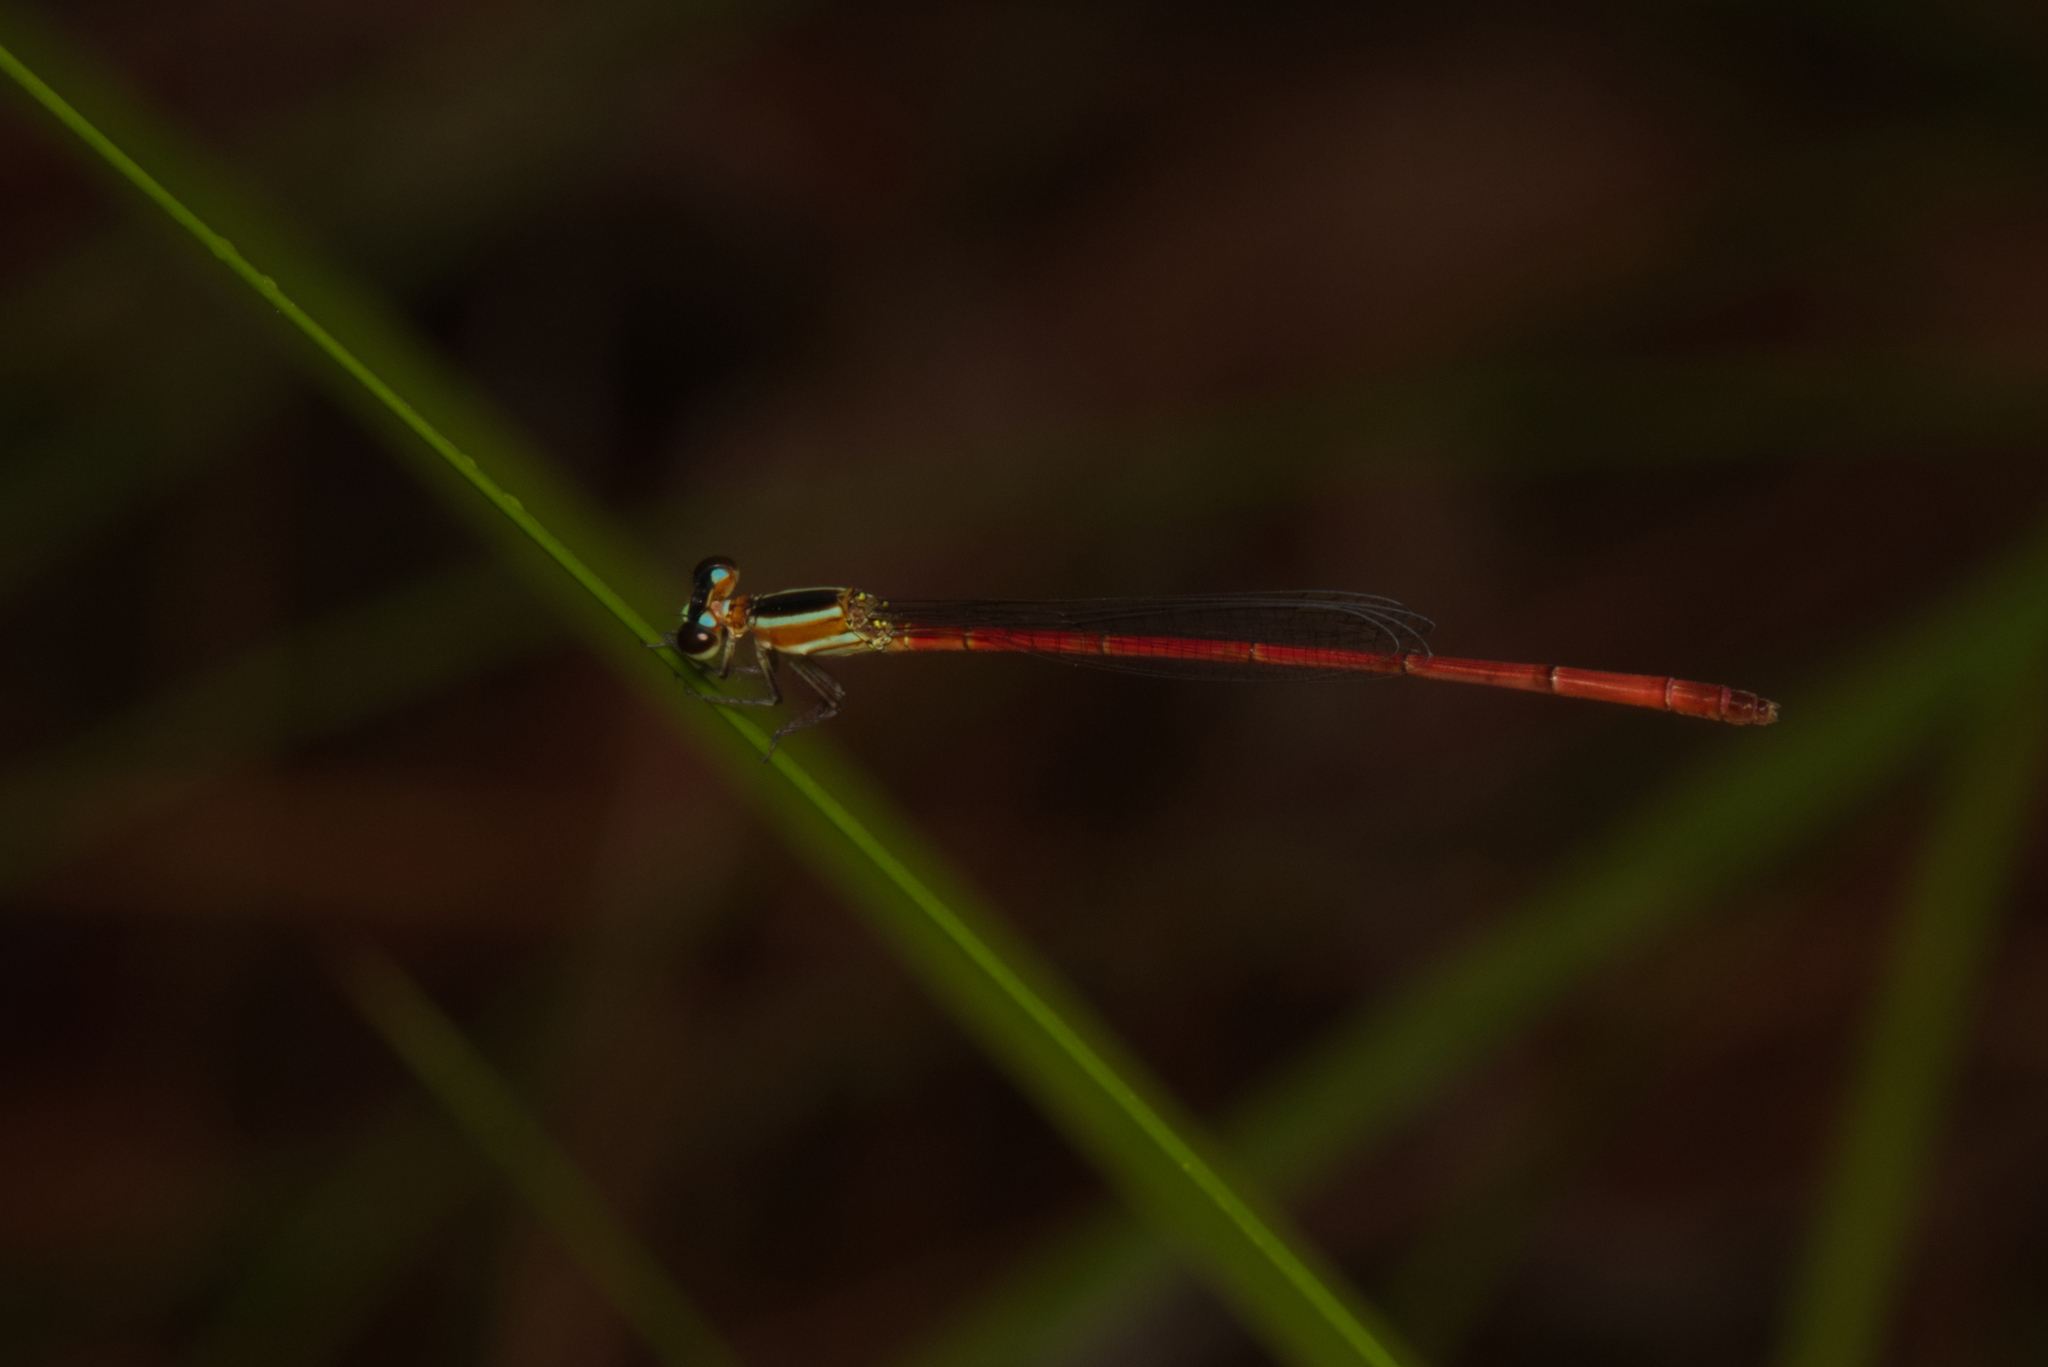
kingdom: Animalia
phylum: Arthropoda
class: Insecta
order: Odonata
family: Coenagrionidae
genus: Argiocnemis
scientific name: Argiocnemis rubescens
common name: Red-tipped shadefly
